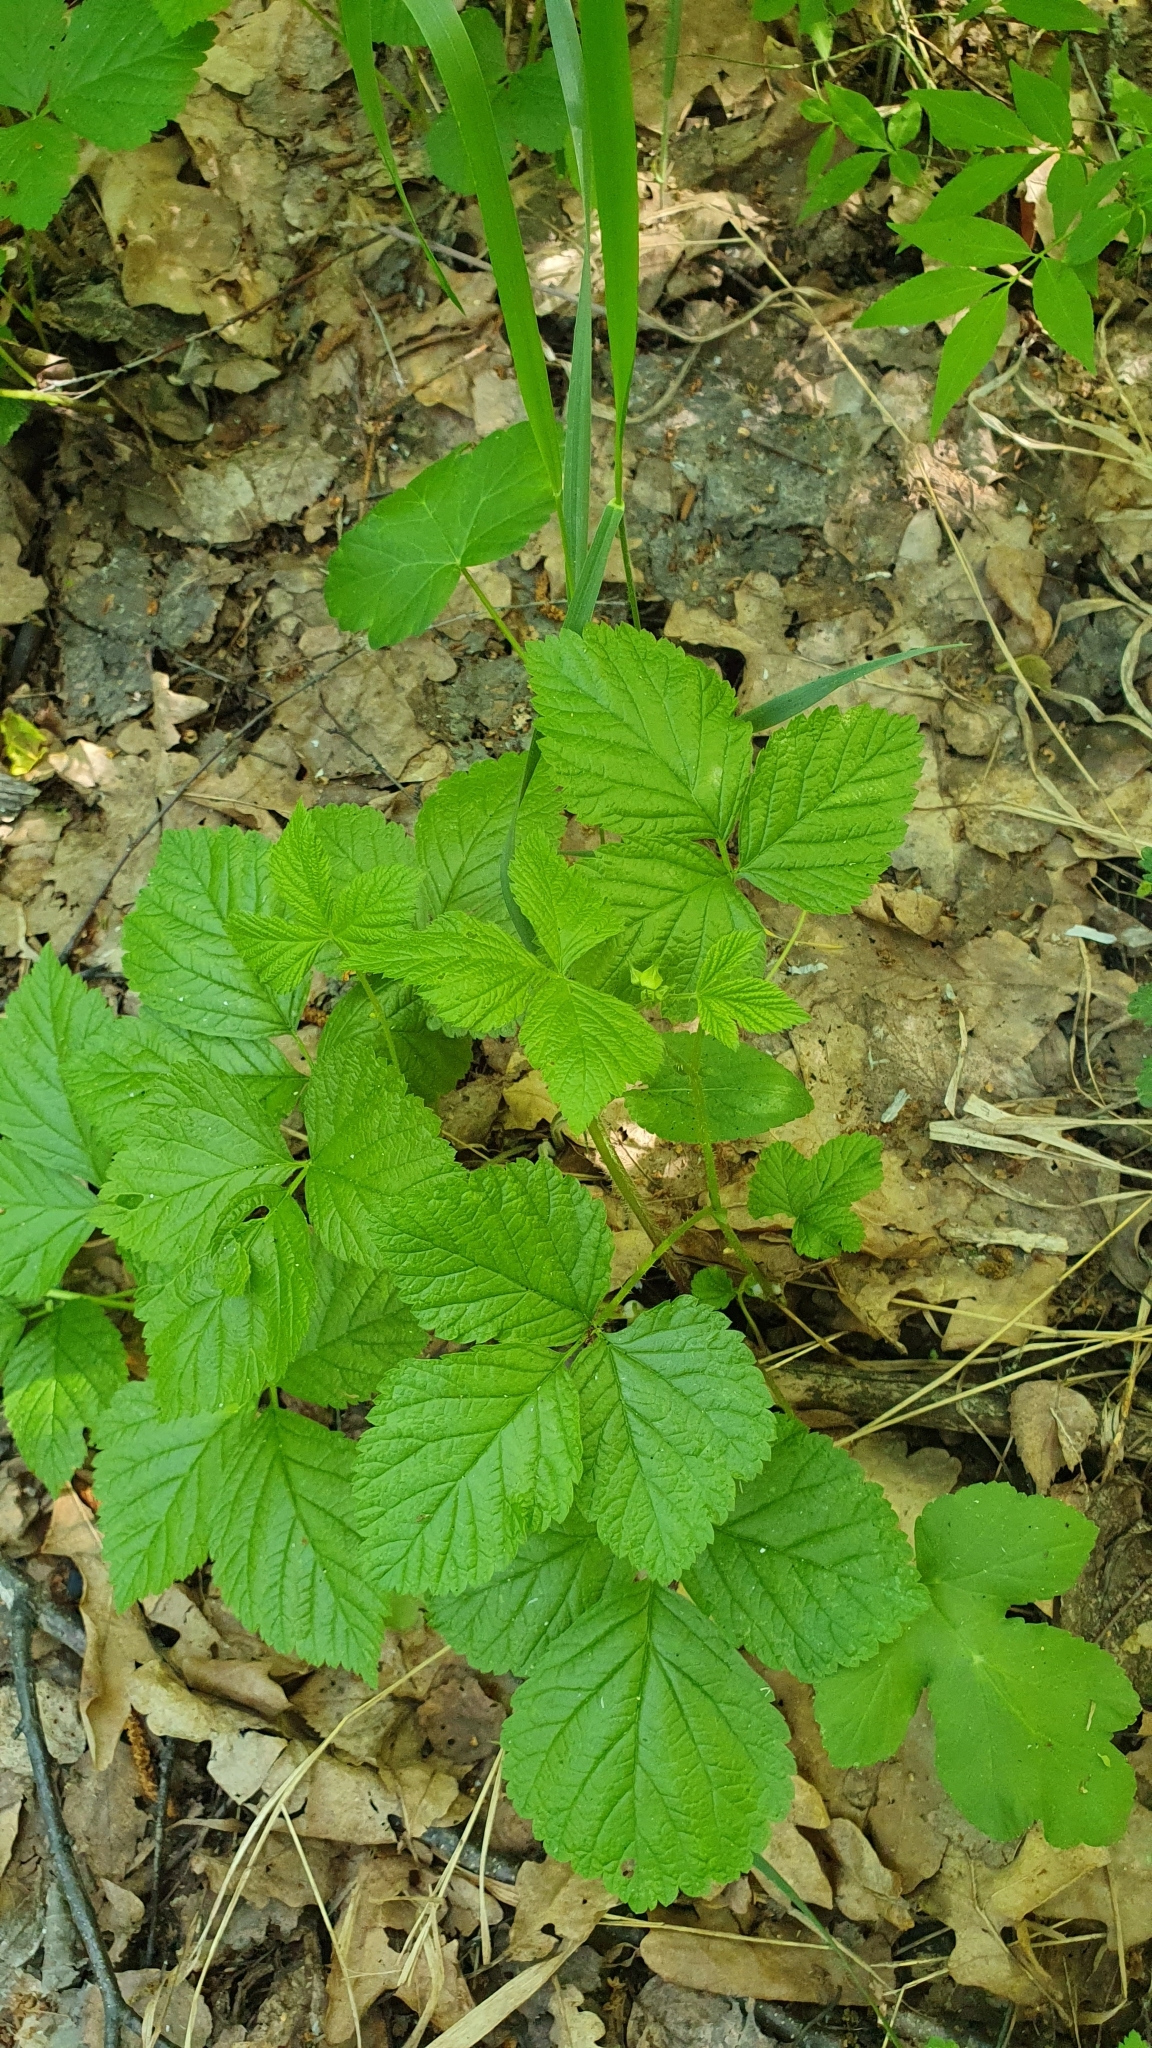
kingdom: Plantae
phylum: Tracheophyta
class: Magnoliopsida
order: Rosales
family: Rosaceae
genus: Rubus
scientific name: Rubus saxatilis
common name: Stone bramble
